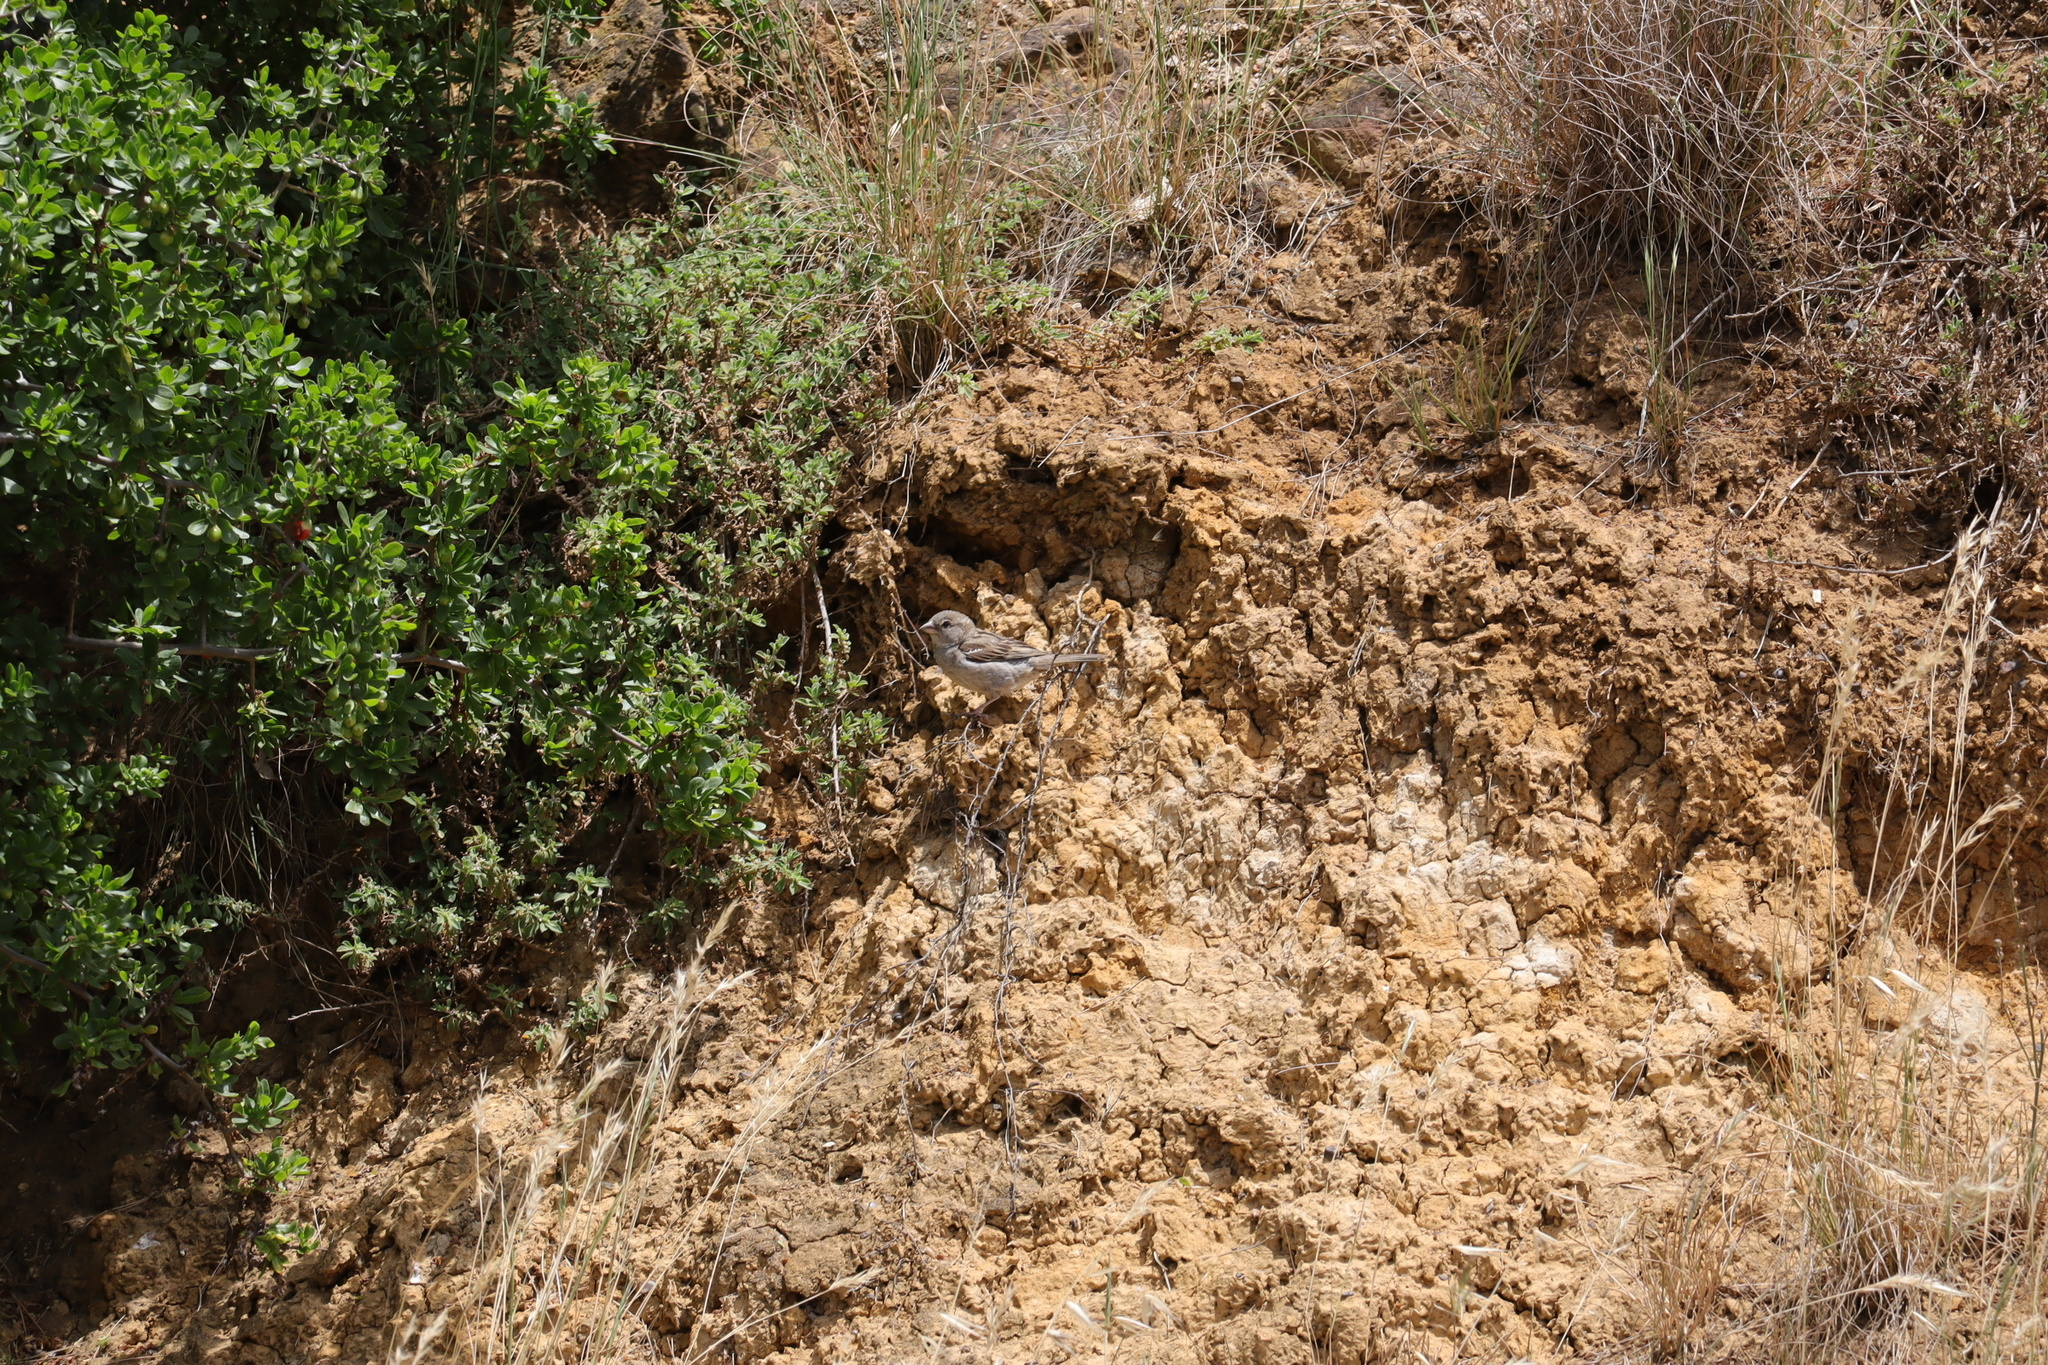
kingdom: Animalia
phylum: Chordata
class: Aves
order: Passeriformes
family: Passeridae
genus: Passer
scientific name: Passer domesticus
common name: House sparrow
